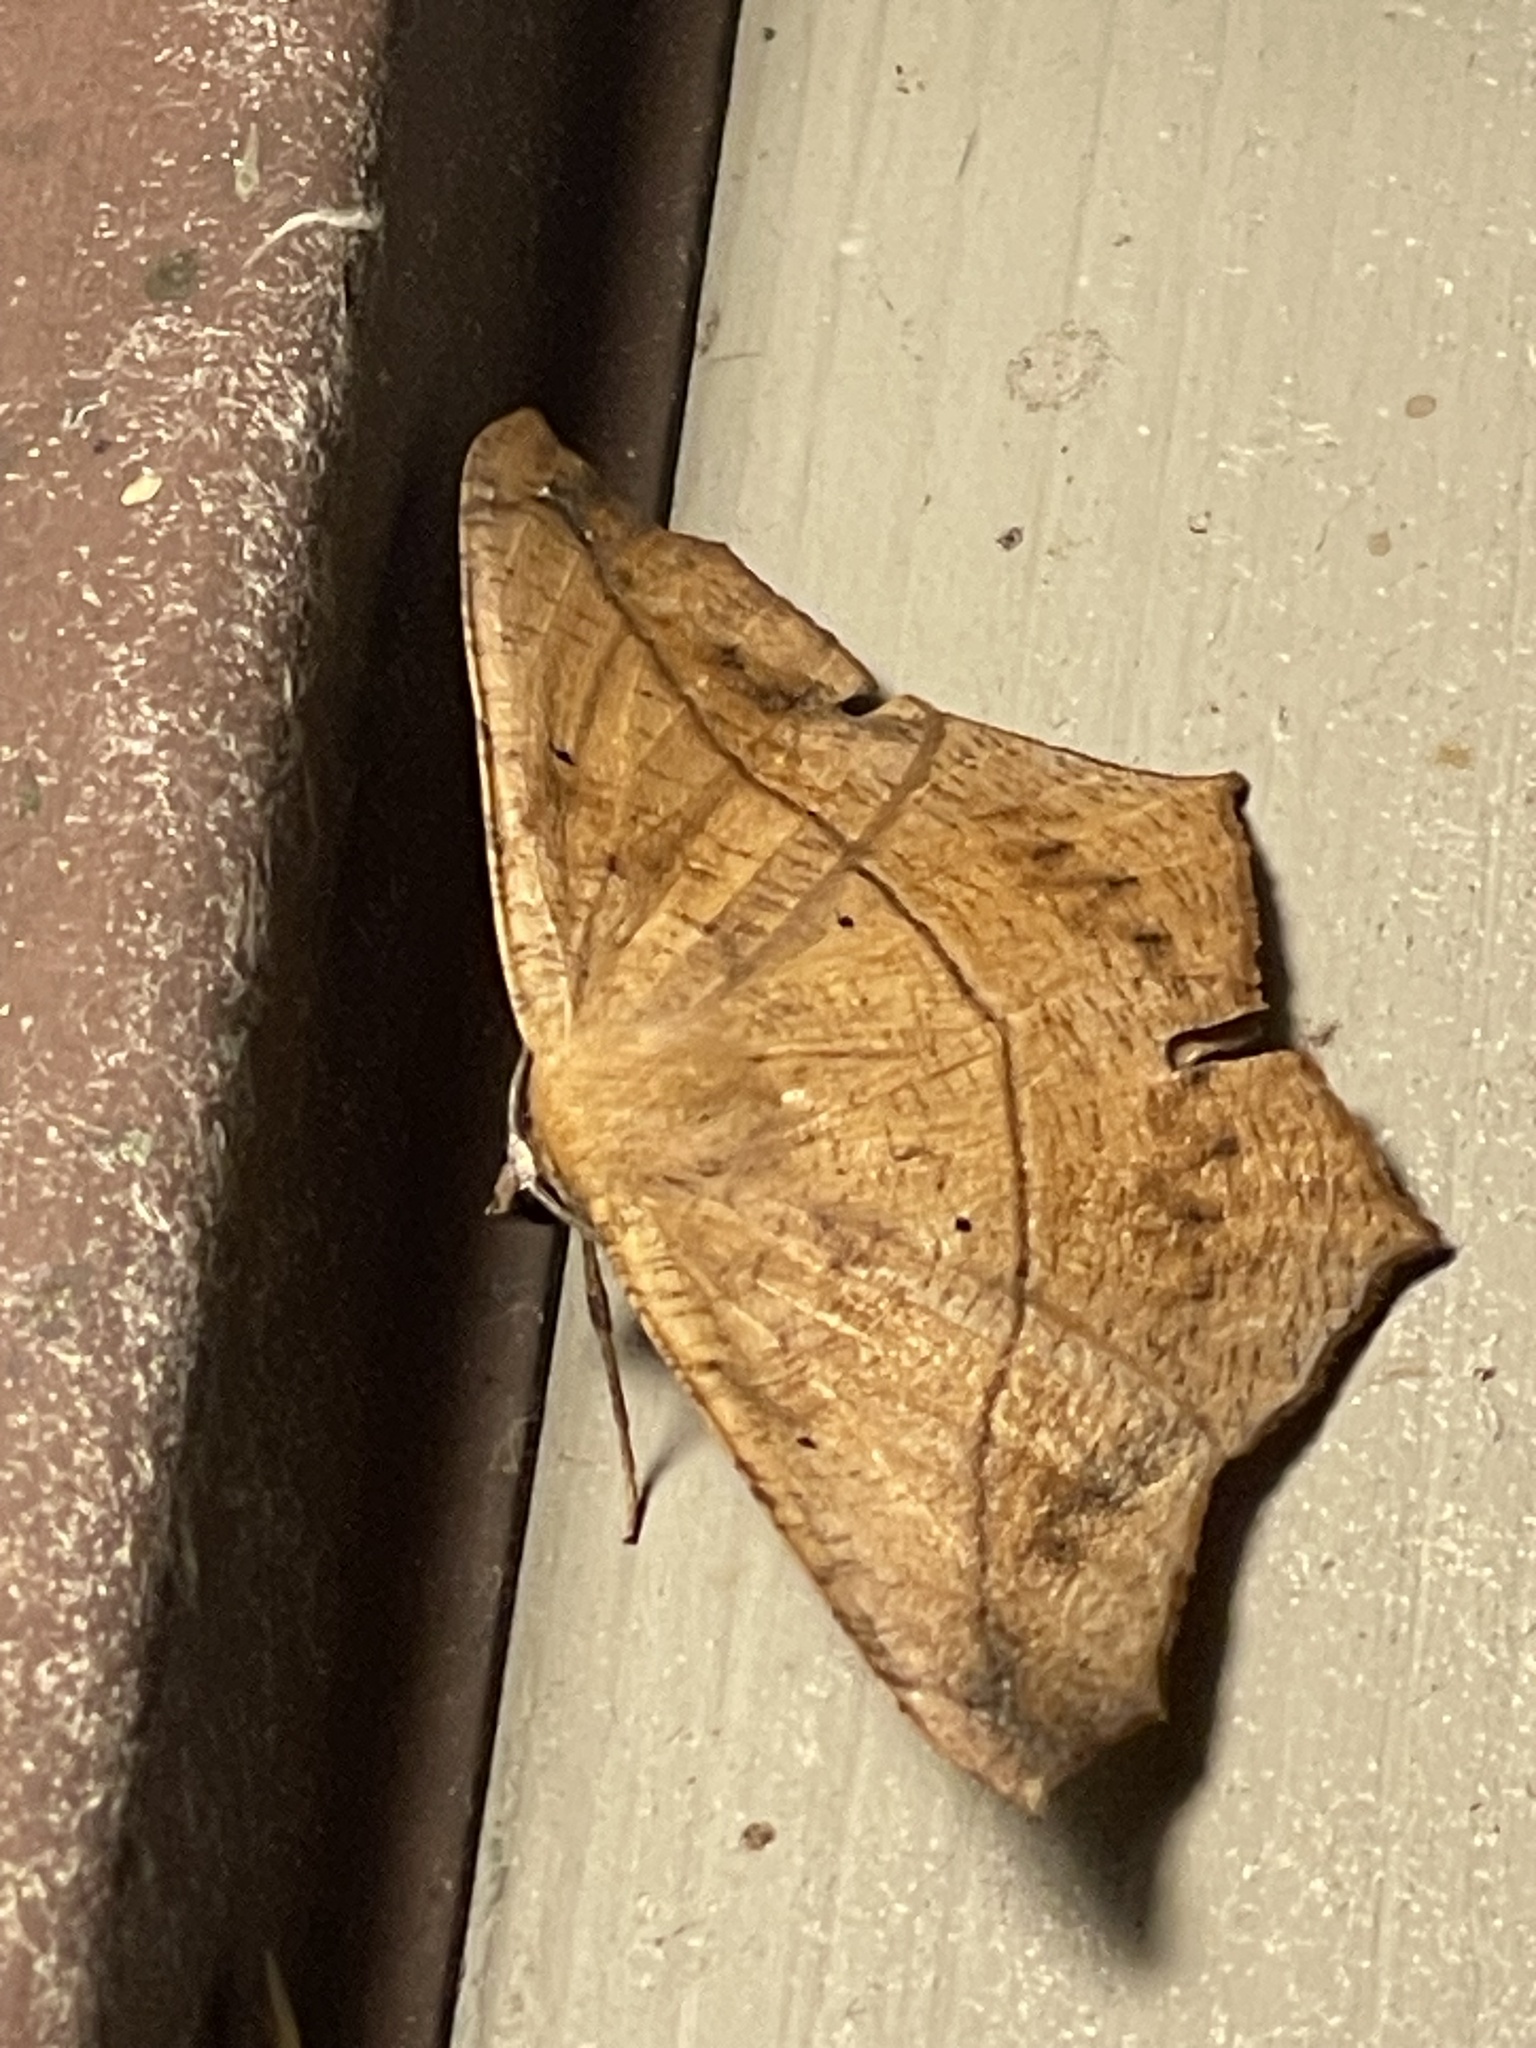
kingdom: Animalia
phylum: Arthropoda
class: Insecta
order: Lepidoptera
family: Geometridae
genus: Prochoerodes
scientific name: Prochoerodes lineola
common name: Large maple spanworm
